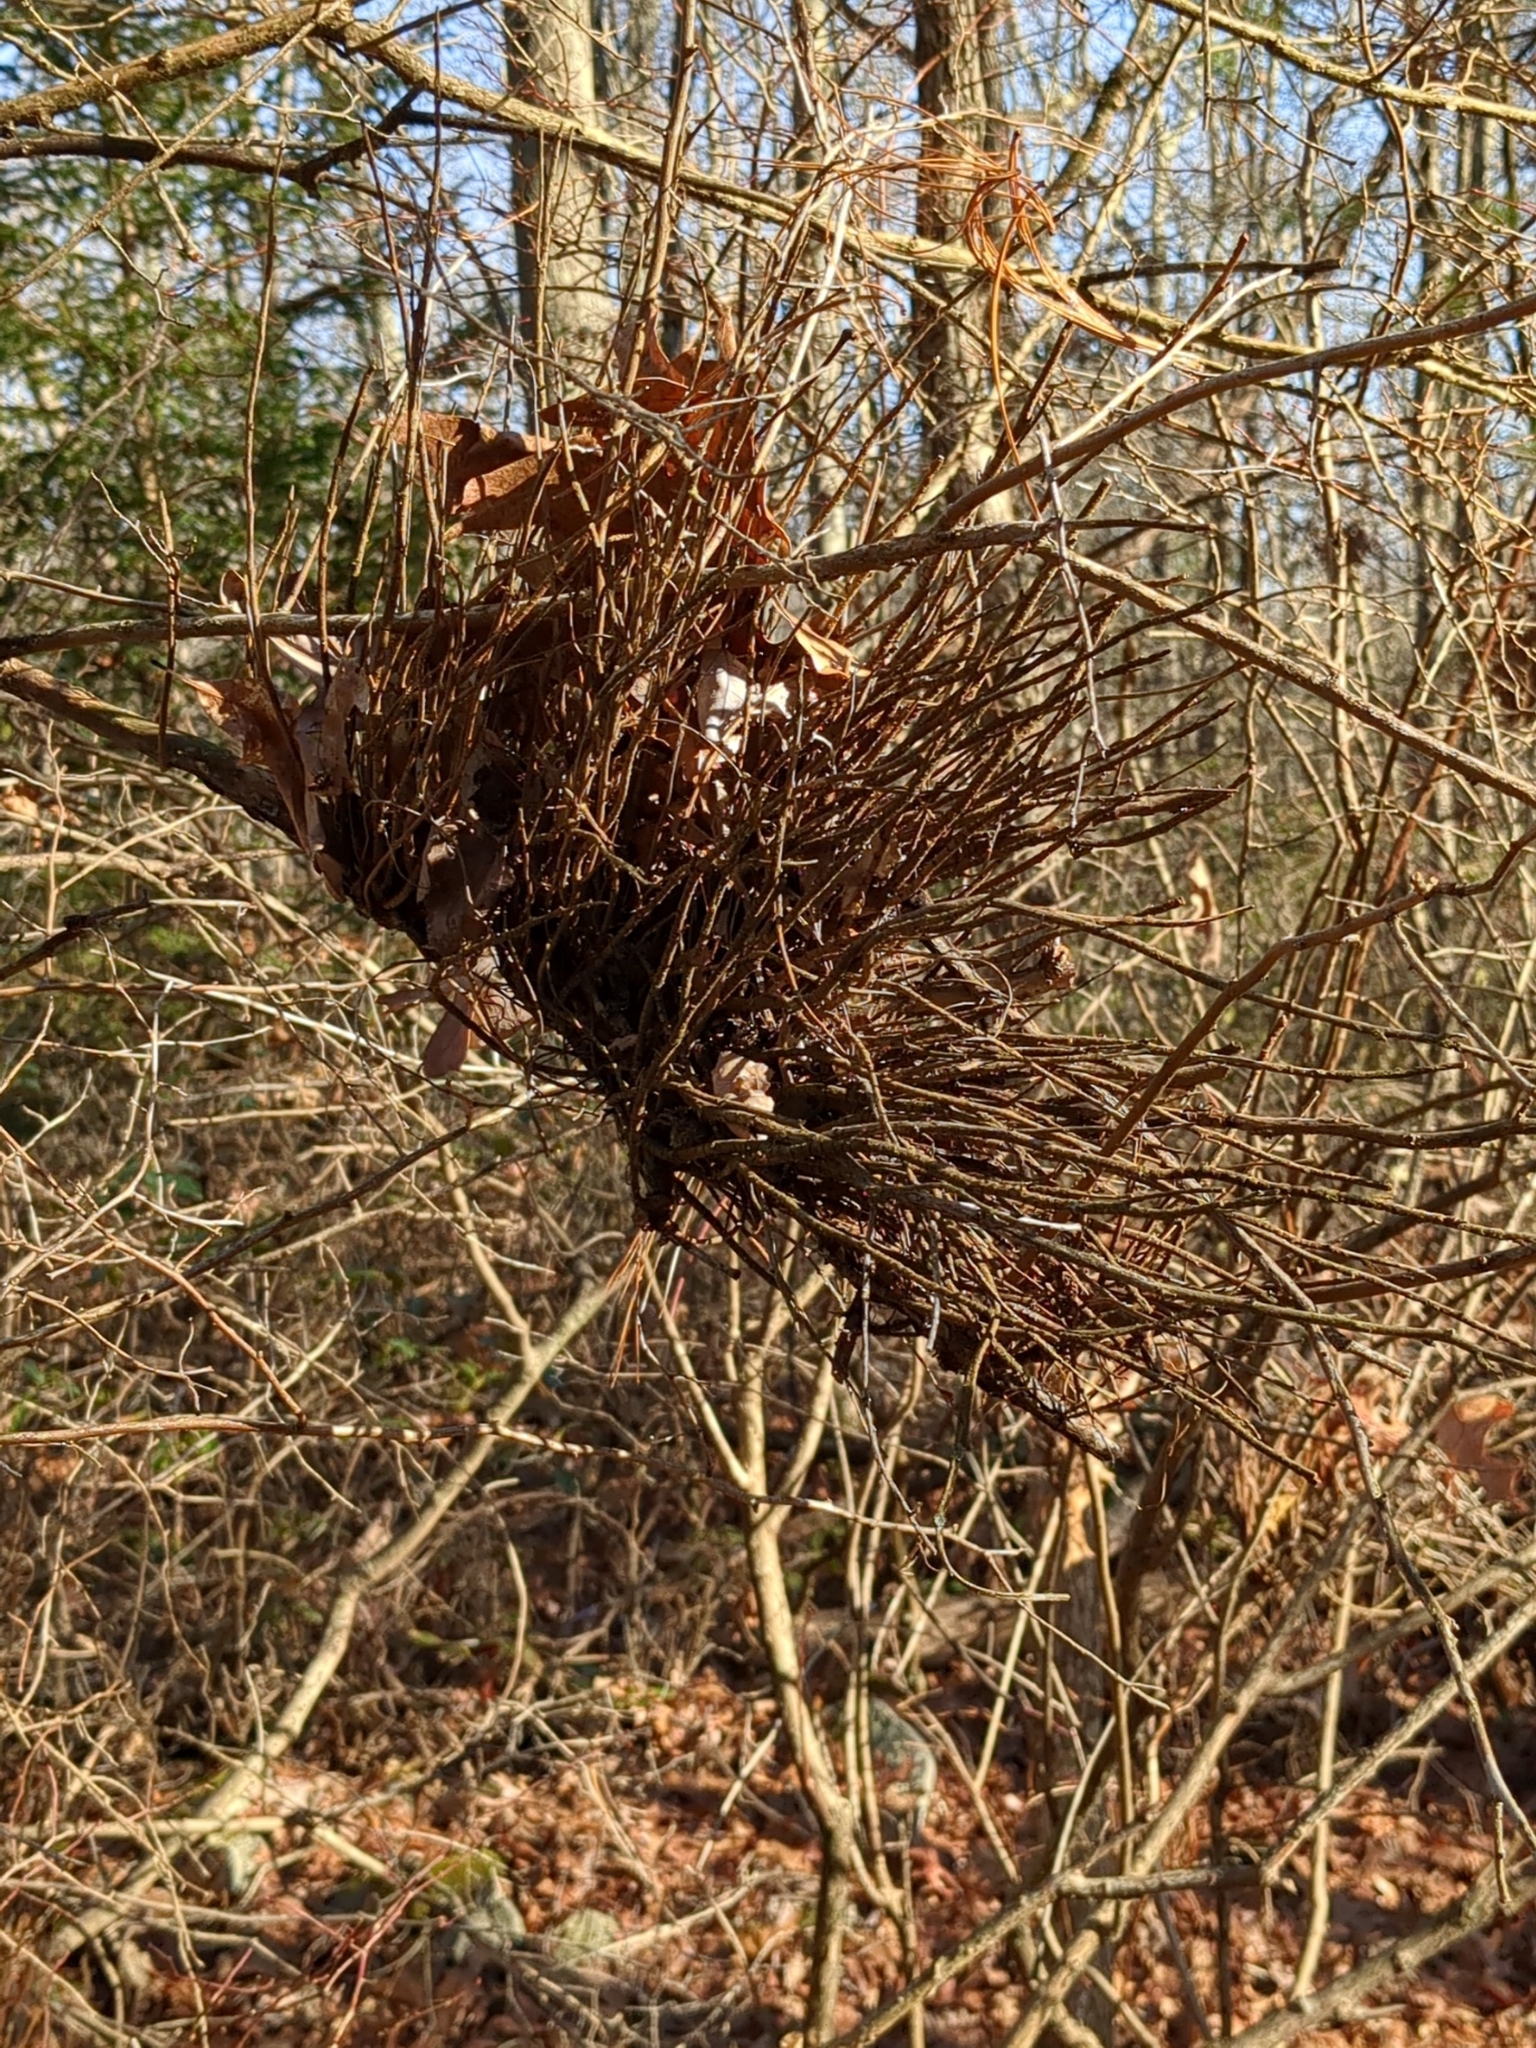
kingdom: Fungi
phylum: Basidiomycota
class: Pucciniomycetes
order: Pucciniales
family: Pucciniastraceae
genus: Calyptospora
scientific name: Calyptospora columnaris
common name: Huckleberry broom rust fungus
